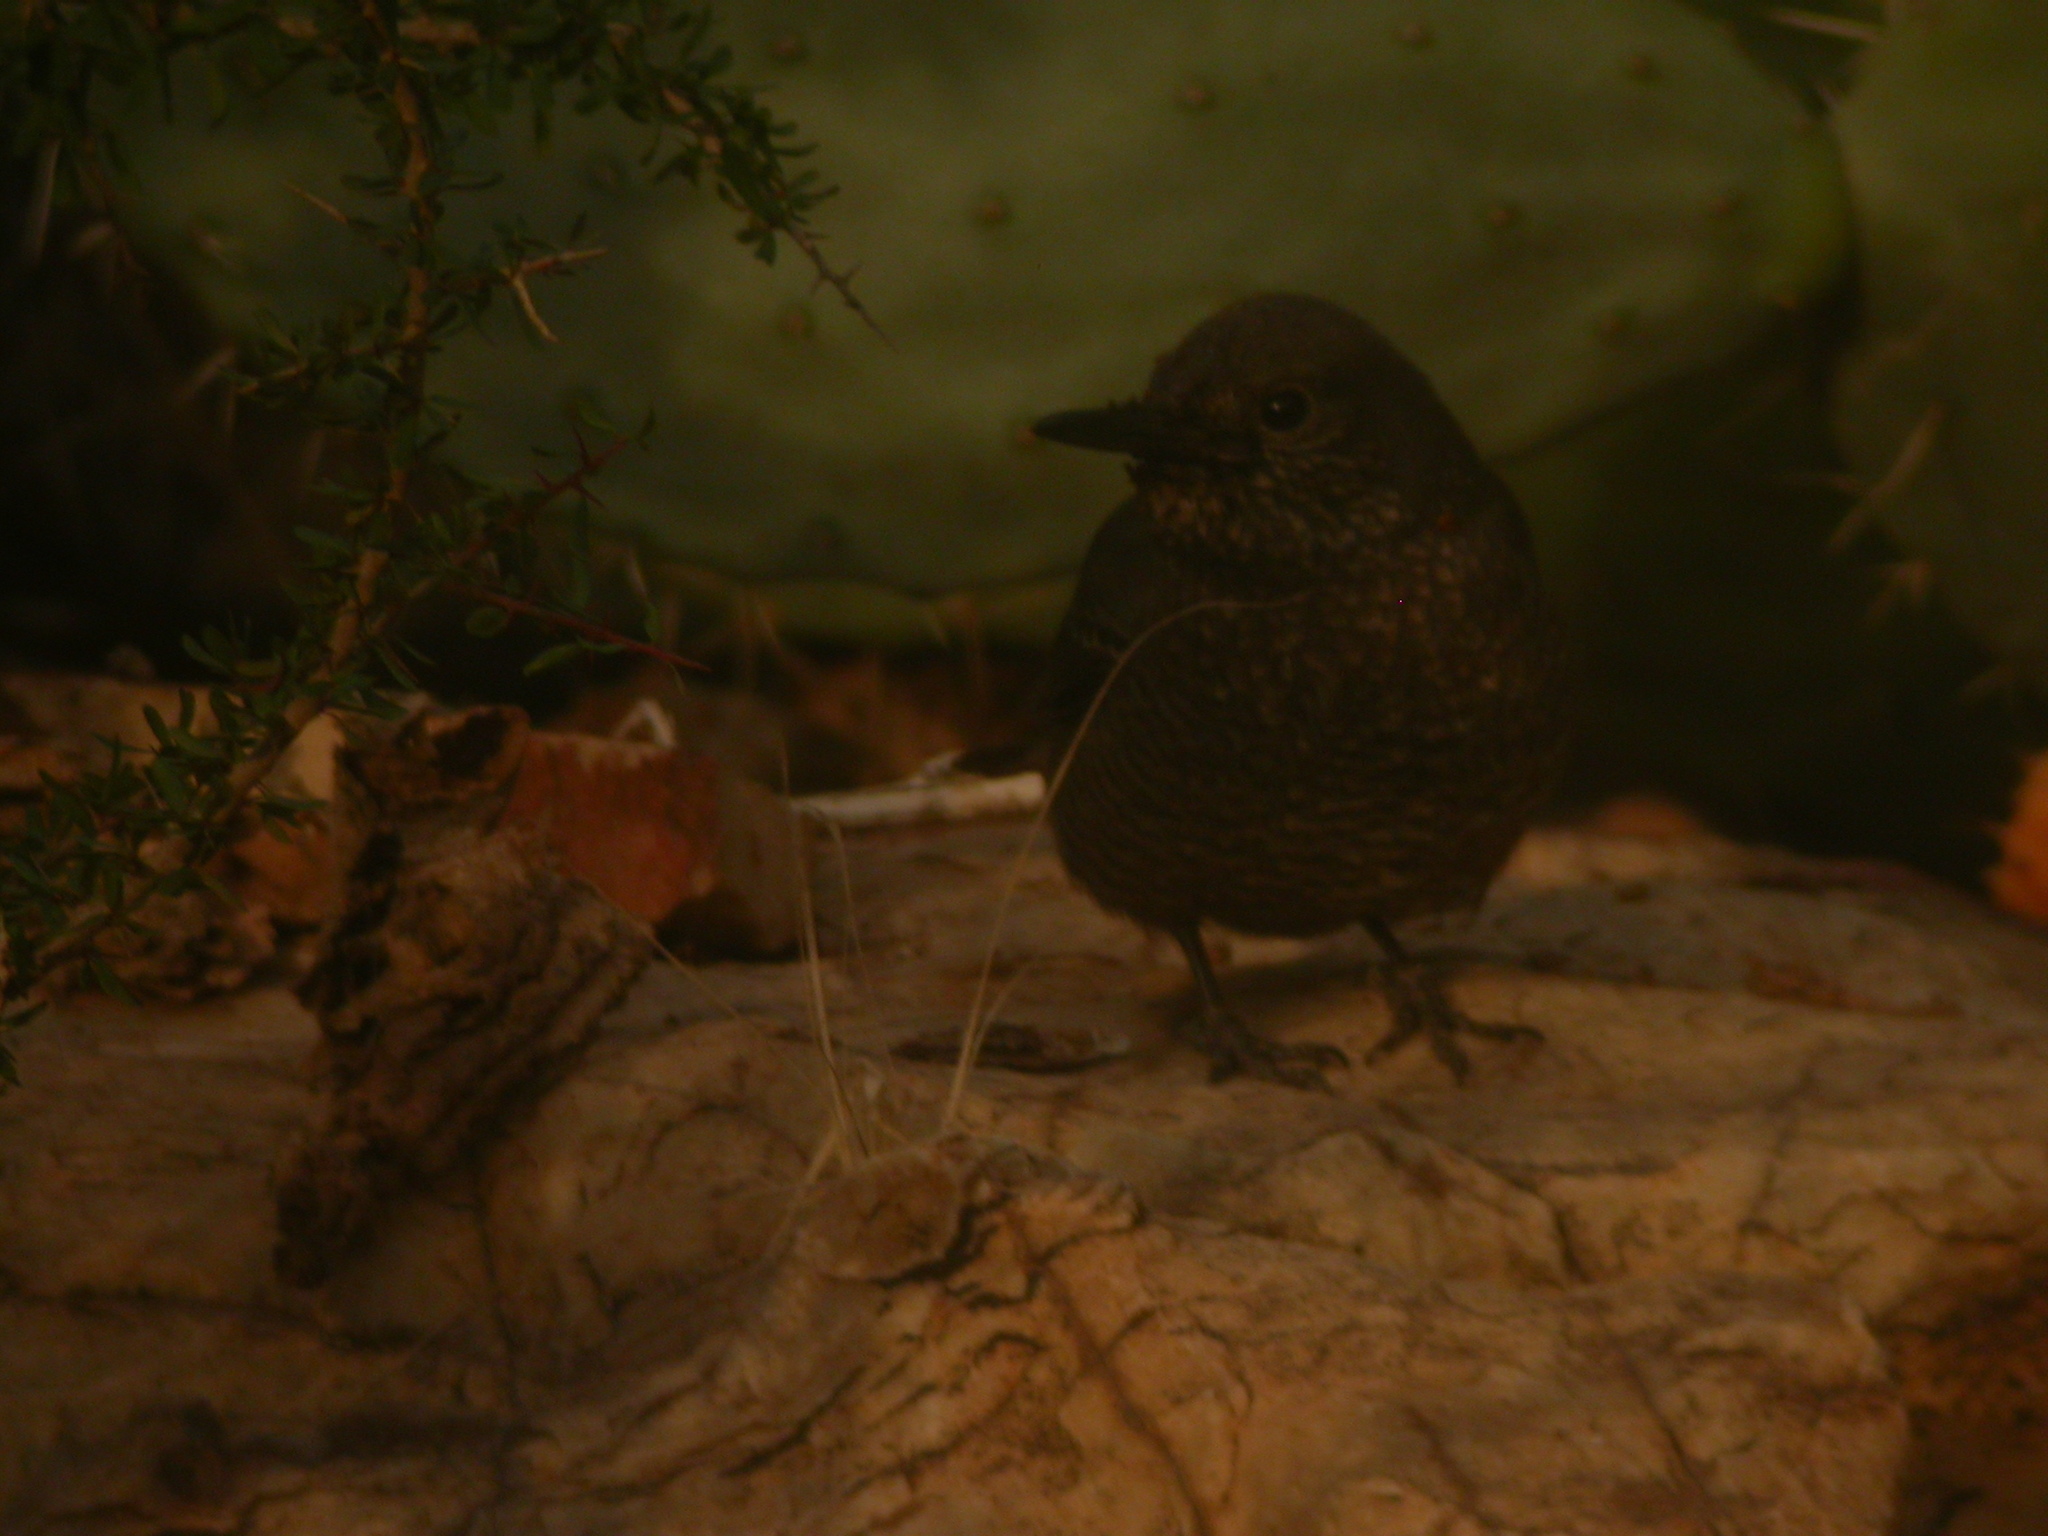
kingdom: Animalia
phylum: Chordata
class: Aves
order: Passeriformes
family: Muscicapidae
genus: Monticola
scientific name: Monticola solitarius
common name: Blue rock thrush
